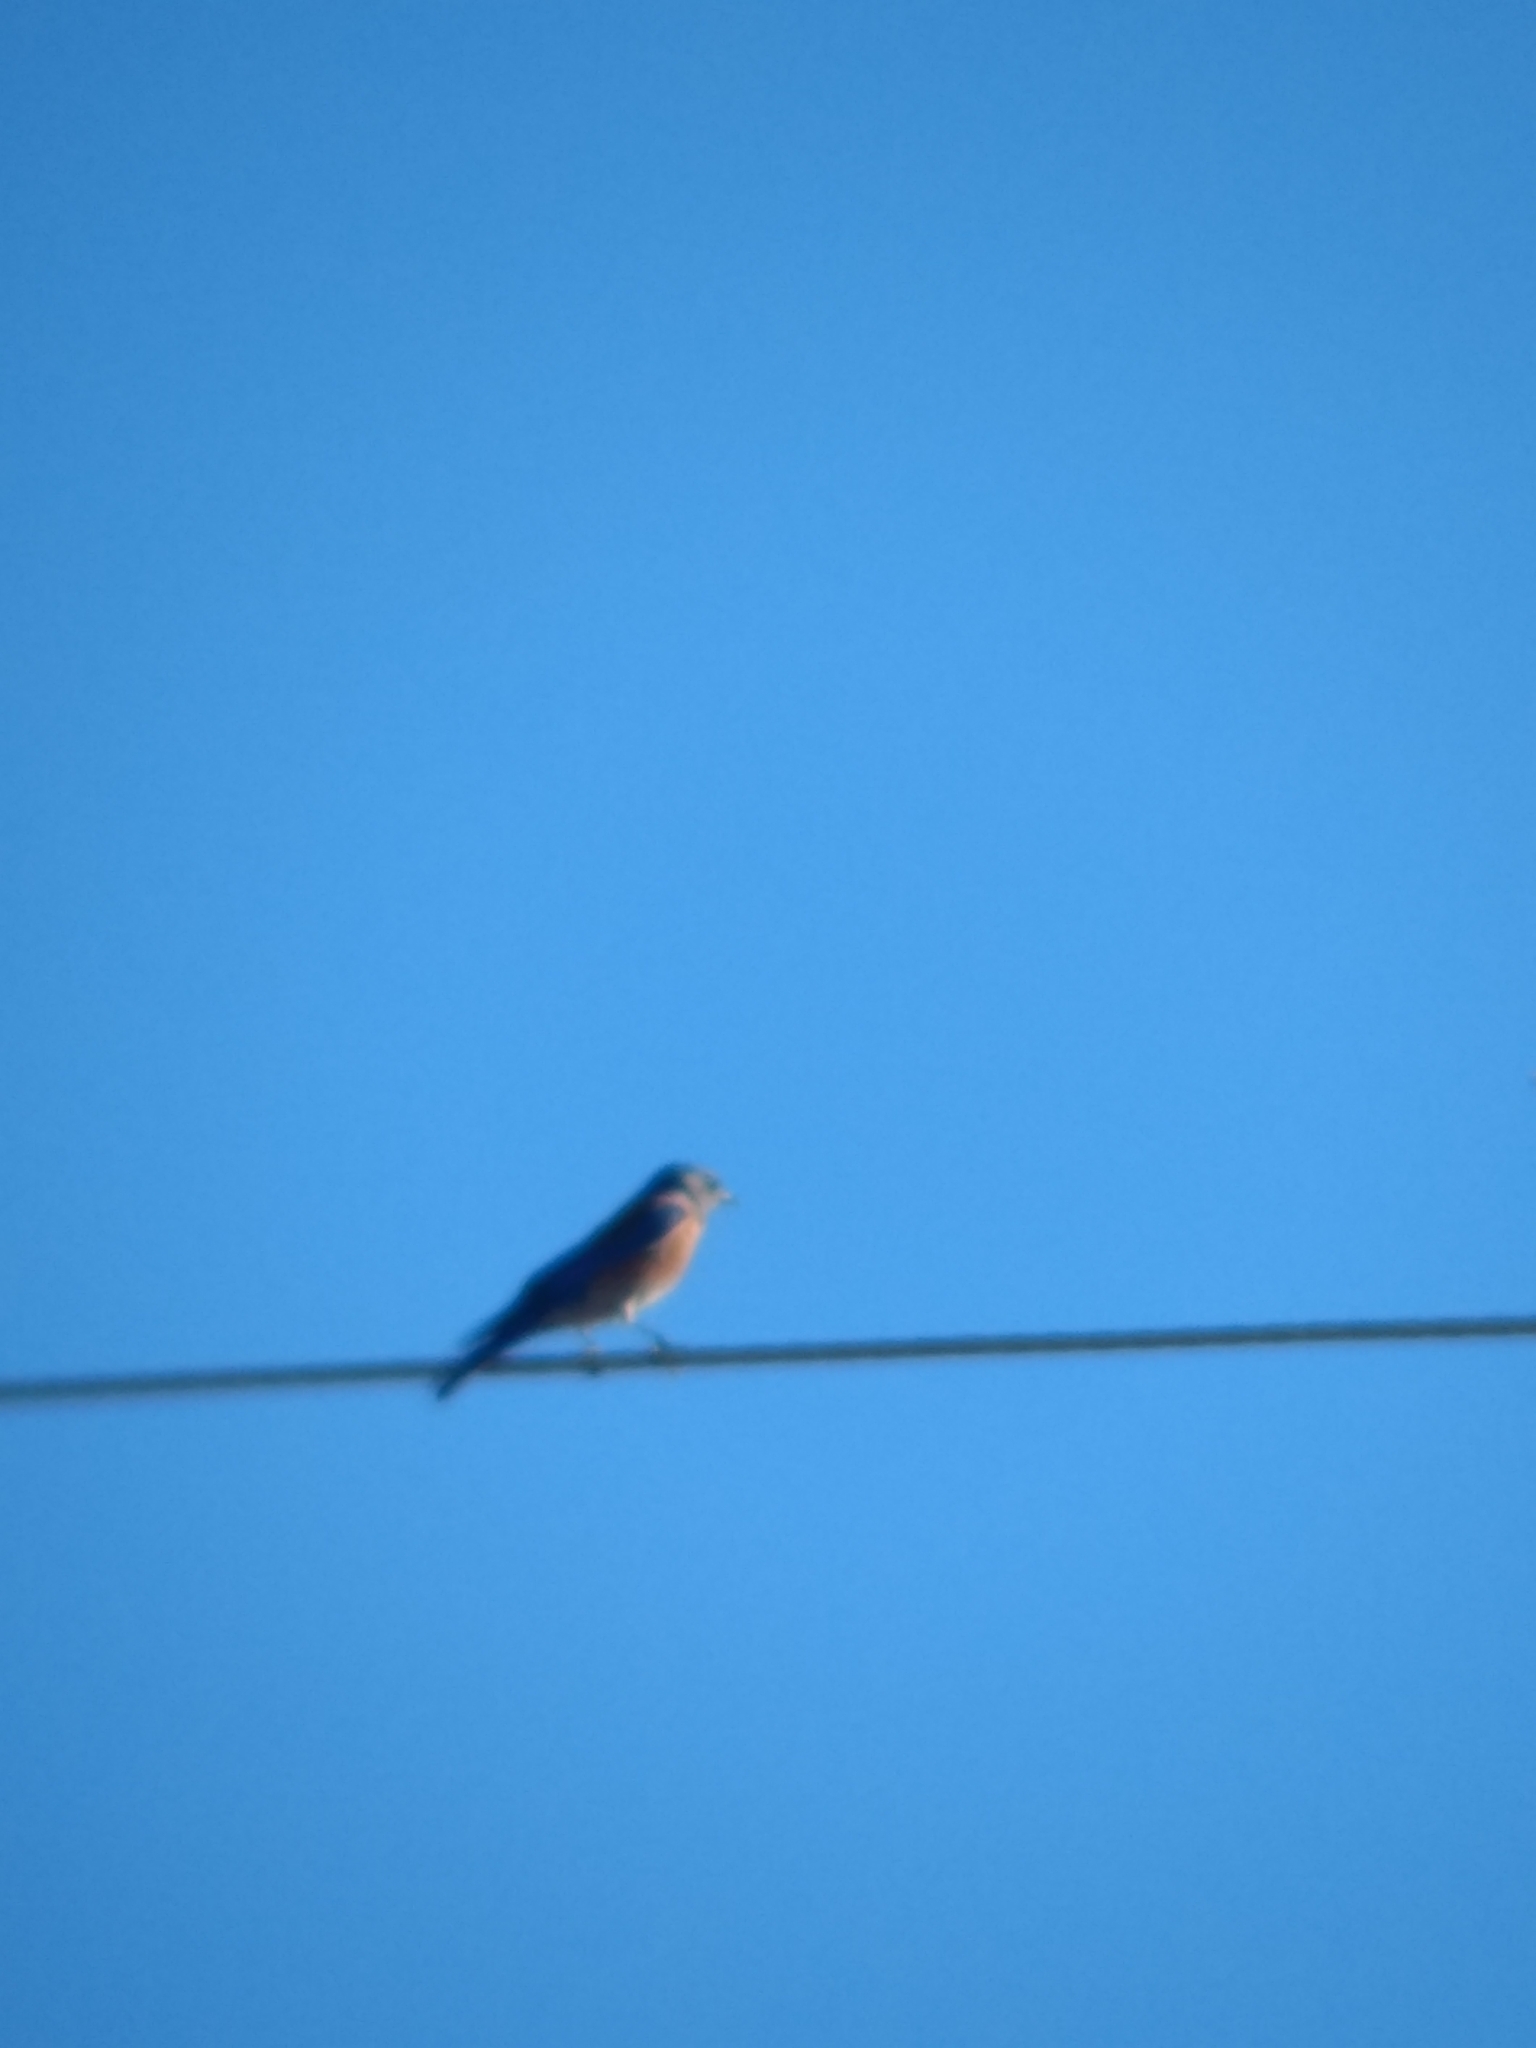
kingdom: Animalia
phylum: Chordata
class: Aves
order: Passeriformes
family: Turdidae
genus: Sialia
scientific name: Sialia mexicana
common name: Western bluebird
